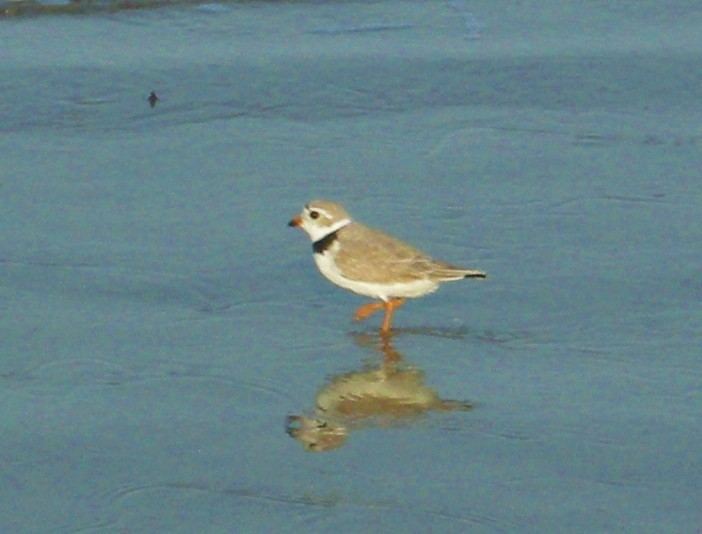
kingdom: Animalia
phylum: Chordata
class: Aves
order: Charadriiformes
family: Charadriidae
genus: Charadrius
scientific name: Charadrius melodus
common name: Piping plover
